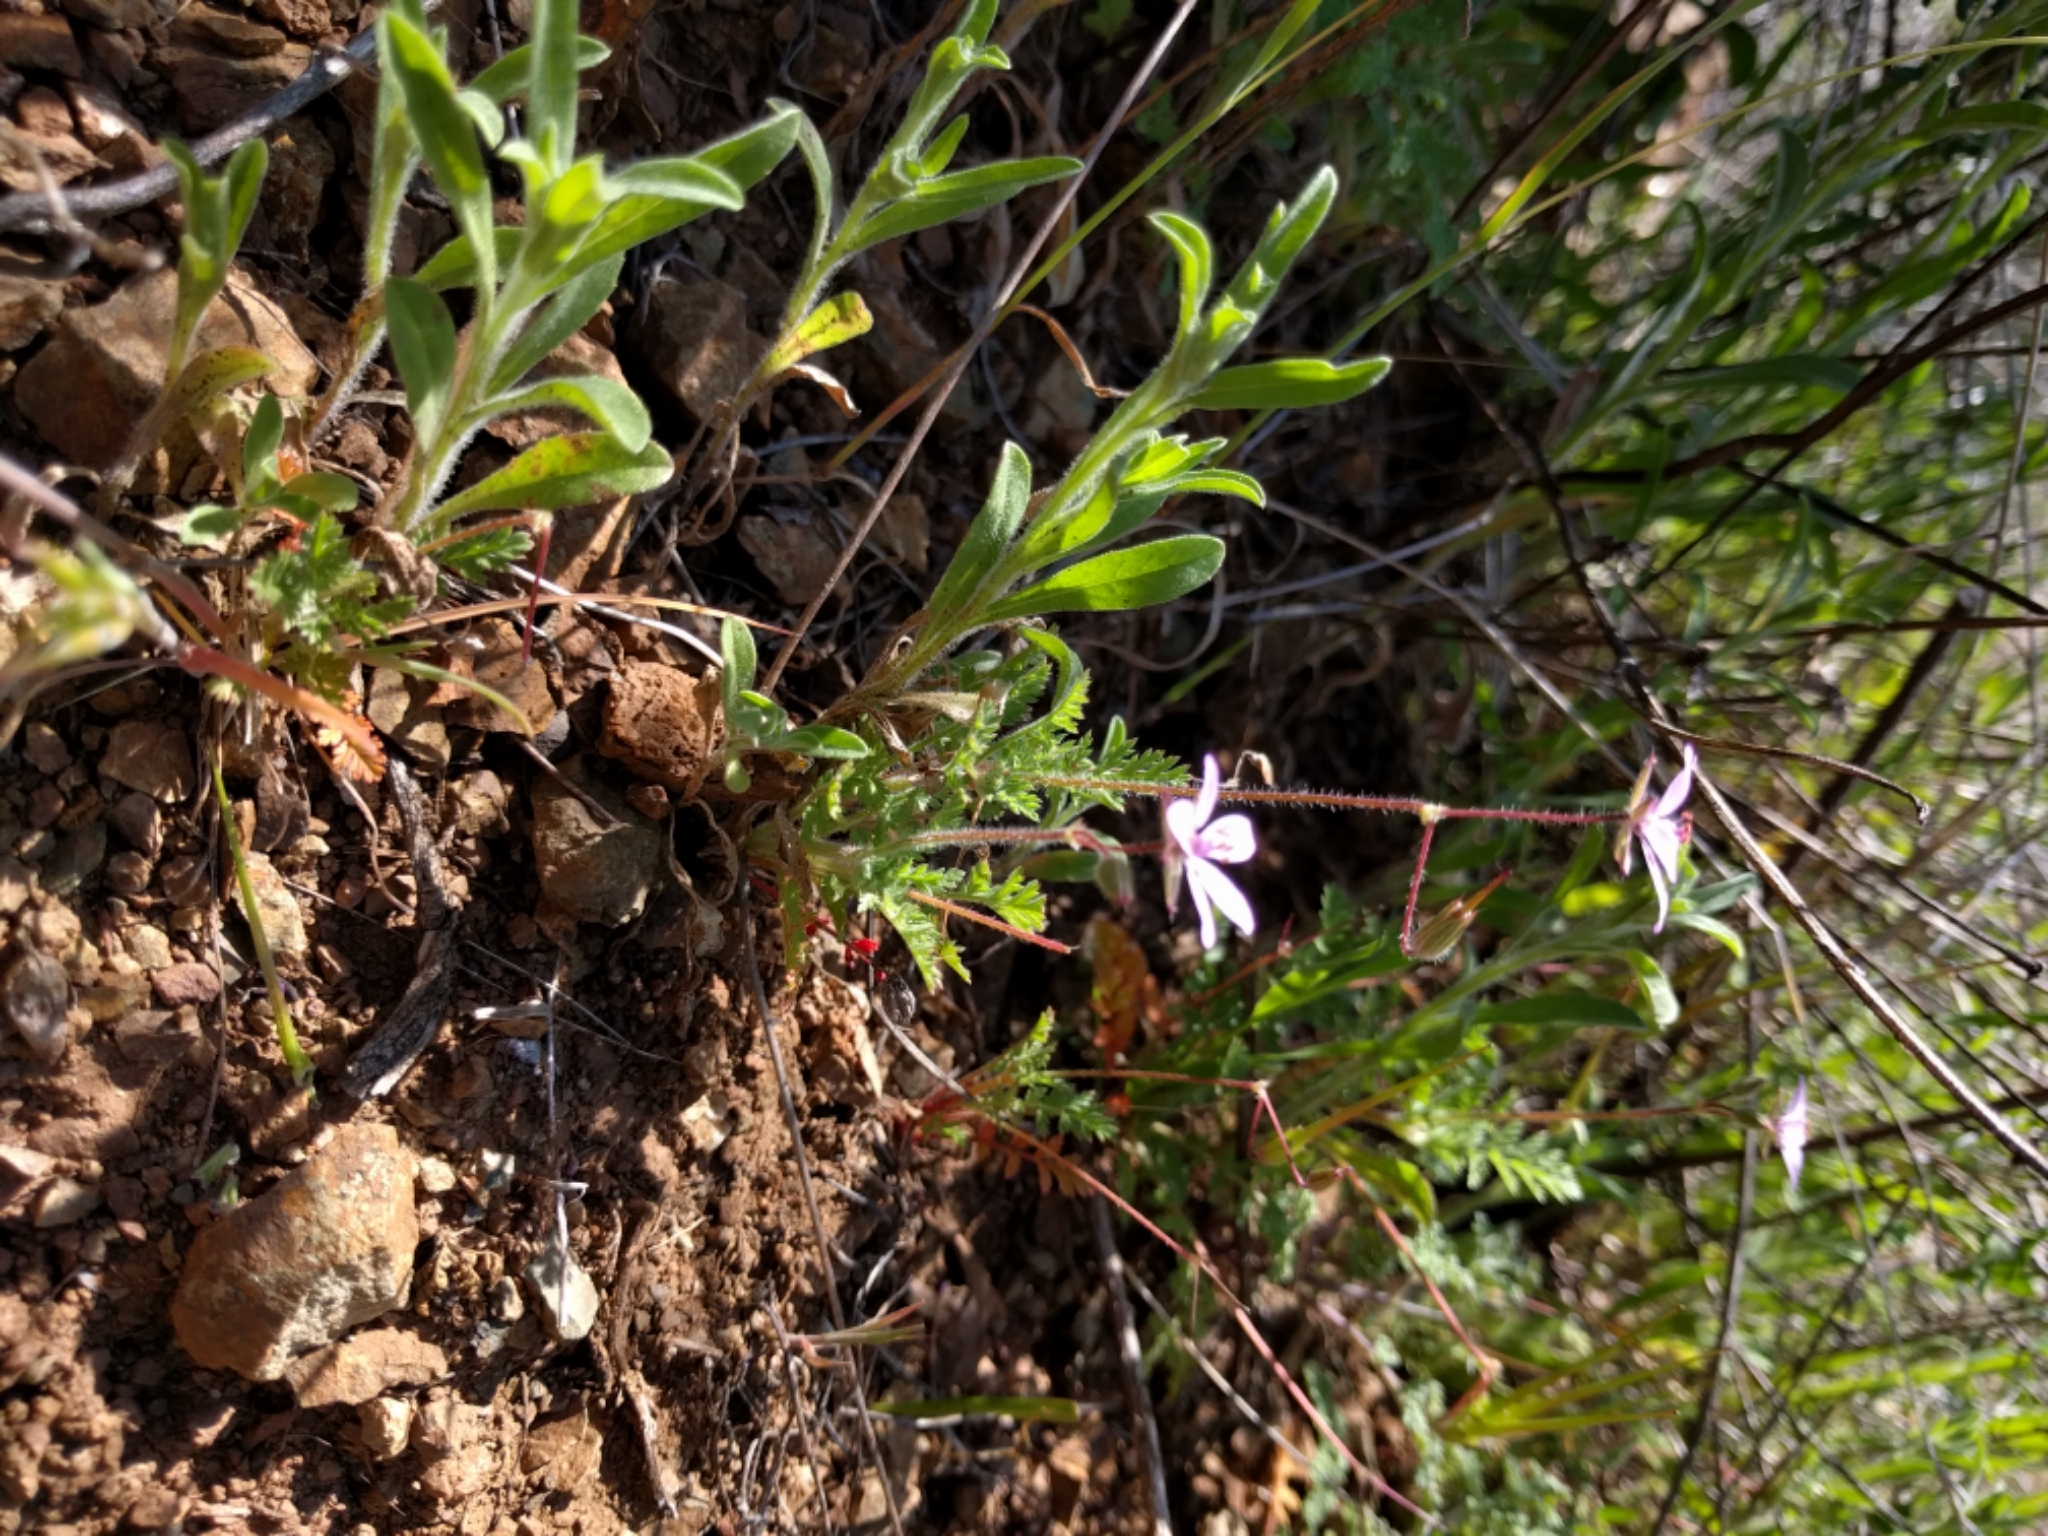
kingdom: Plantae
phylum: Tracheophyta
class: Magnoliopsida
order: Geraniales
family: Geraniaceae
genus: Erodium
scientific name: Erodium cicutarium
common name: Common stork's-bill
